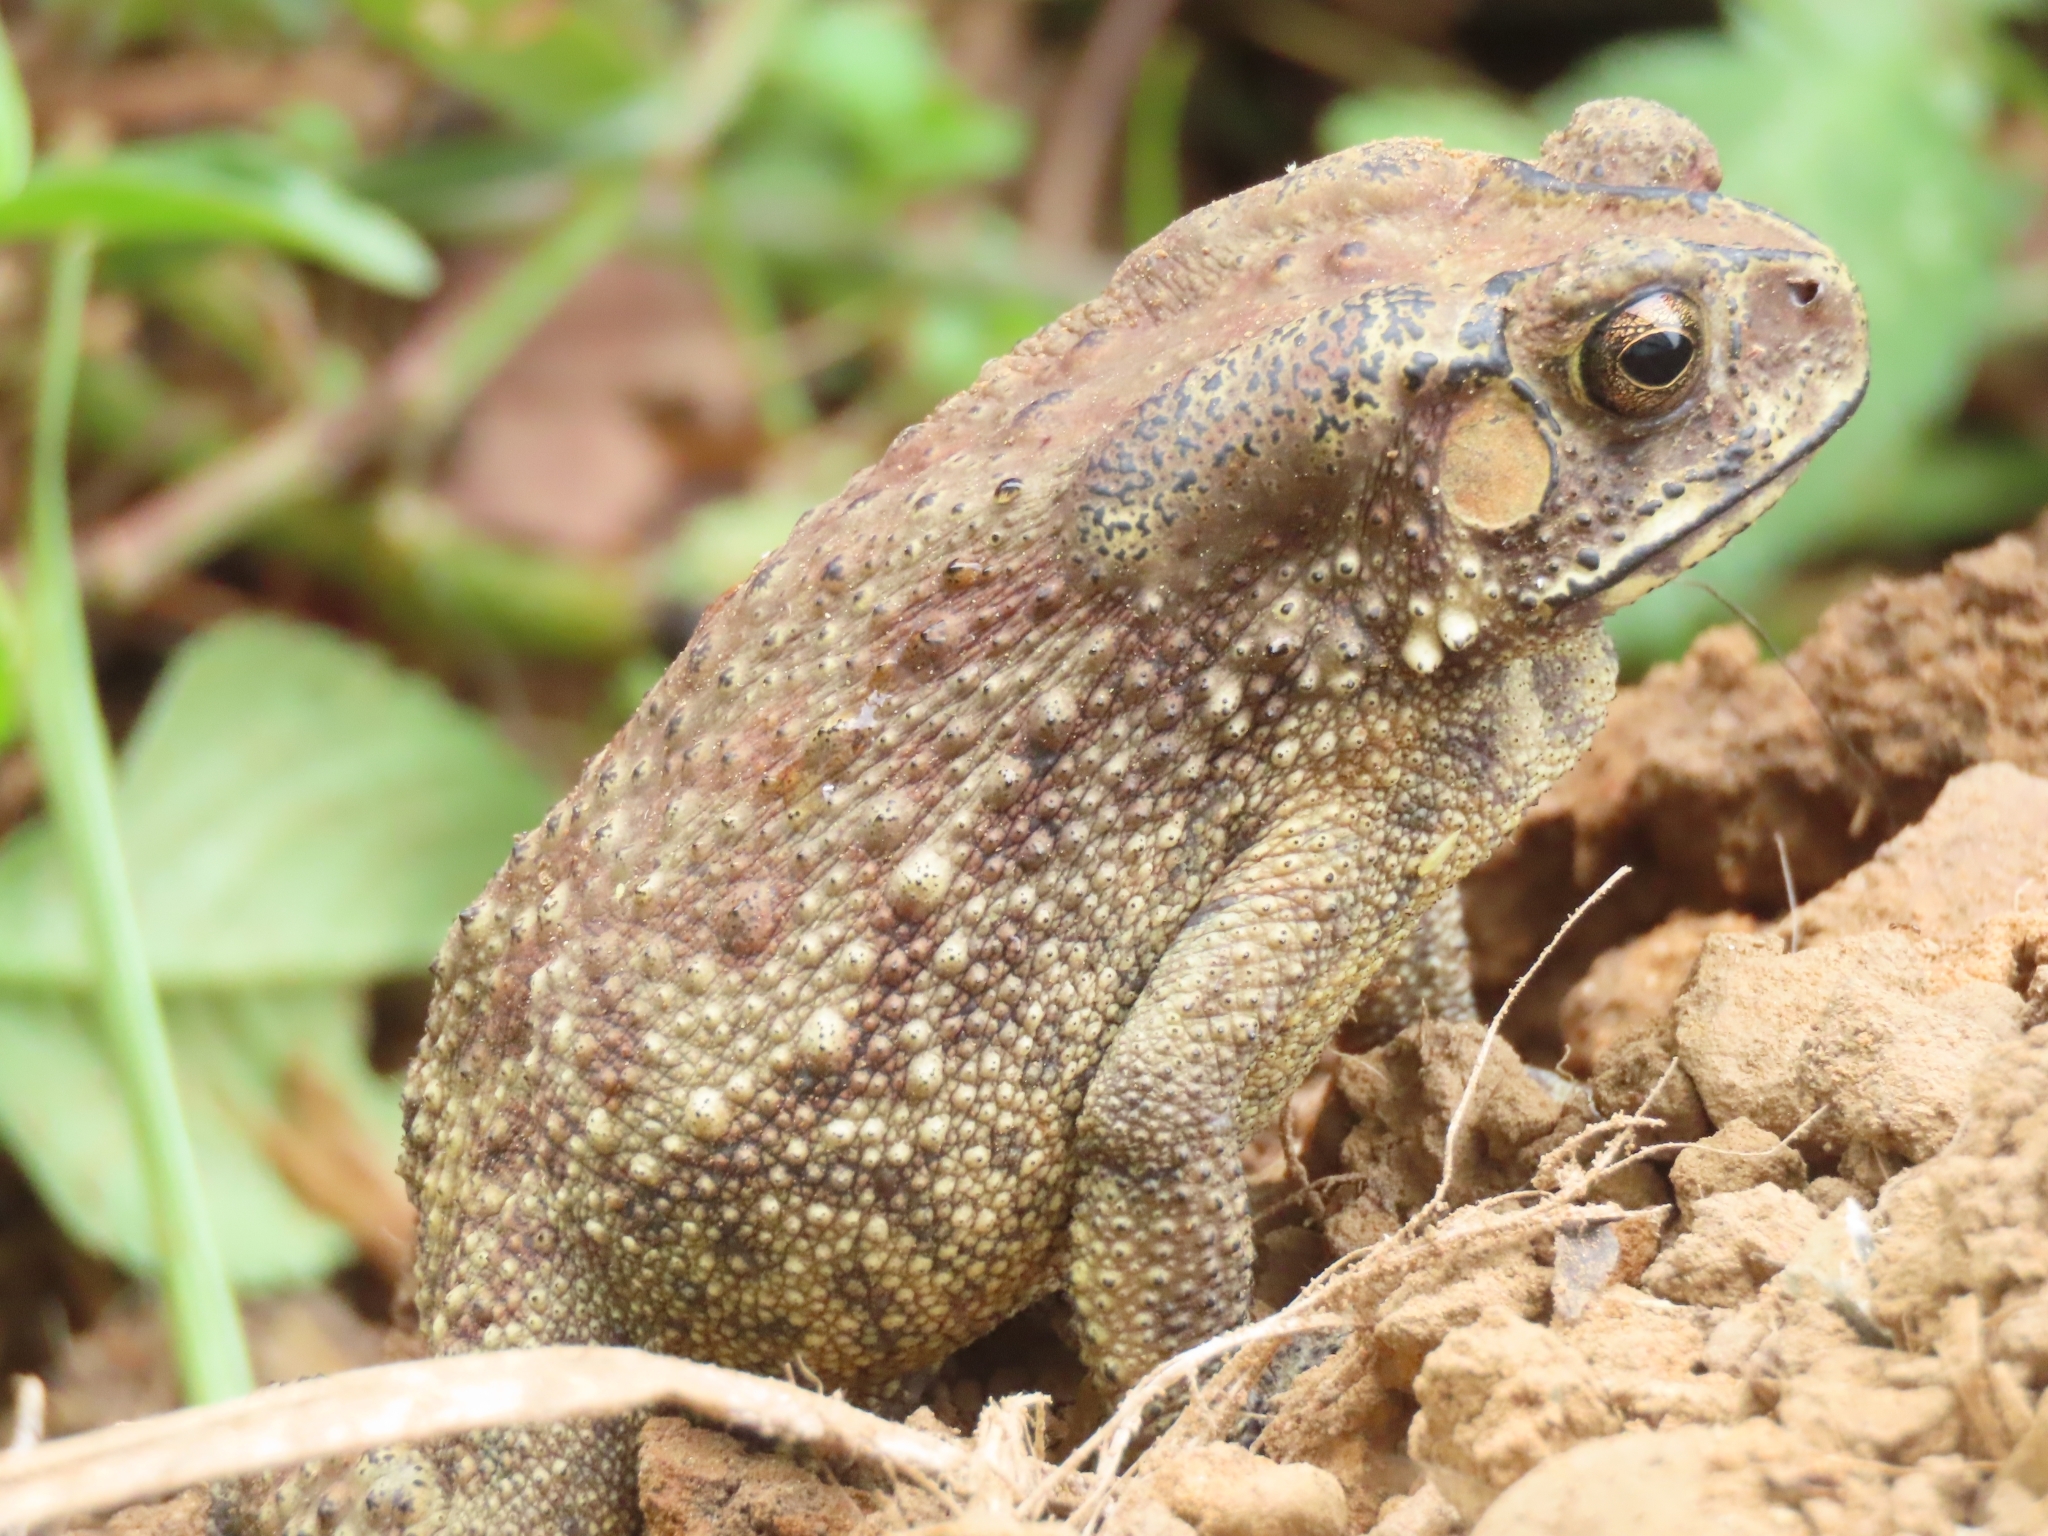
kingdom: Animalia
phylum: Chordata
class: Amphibia
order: Anura
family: Bufonidae
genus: Duttaphrynus
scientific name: Duttaphrynus melanostictus
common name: Common sunda toad
